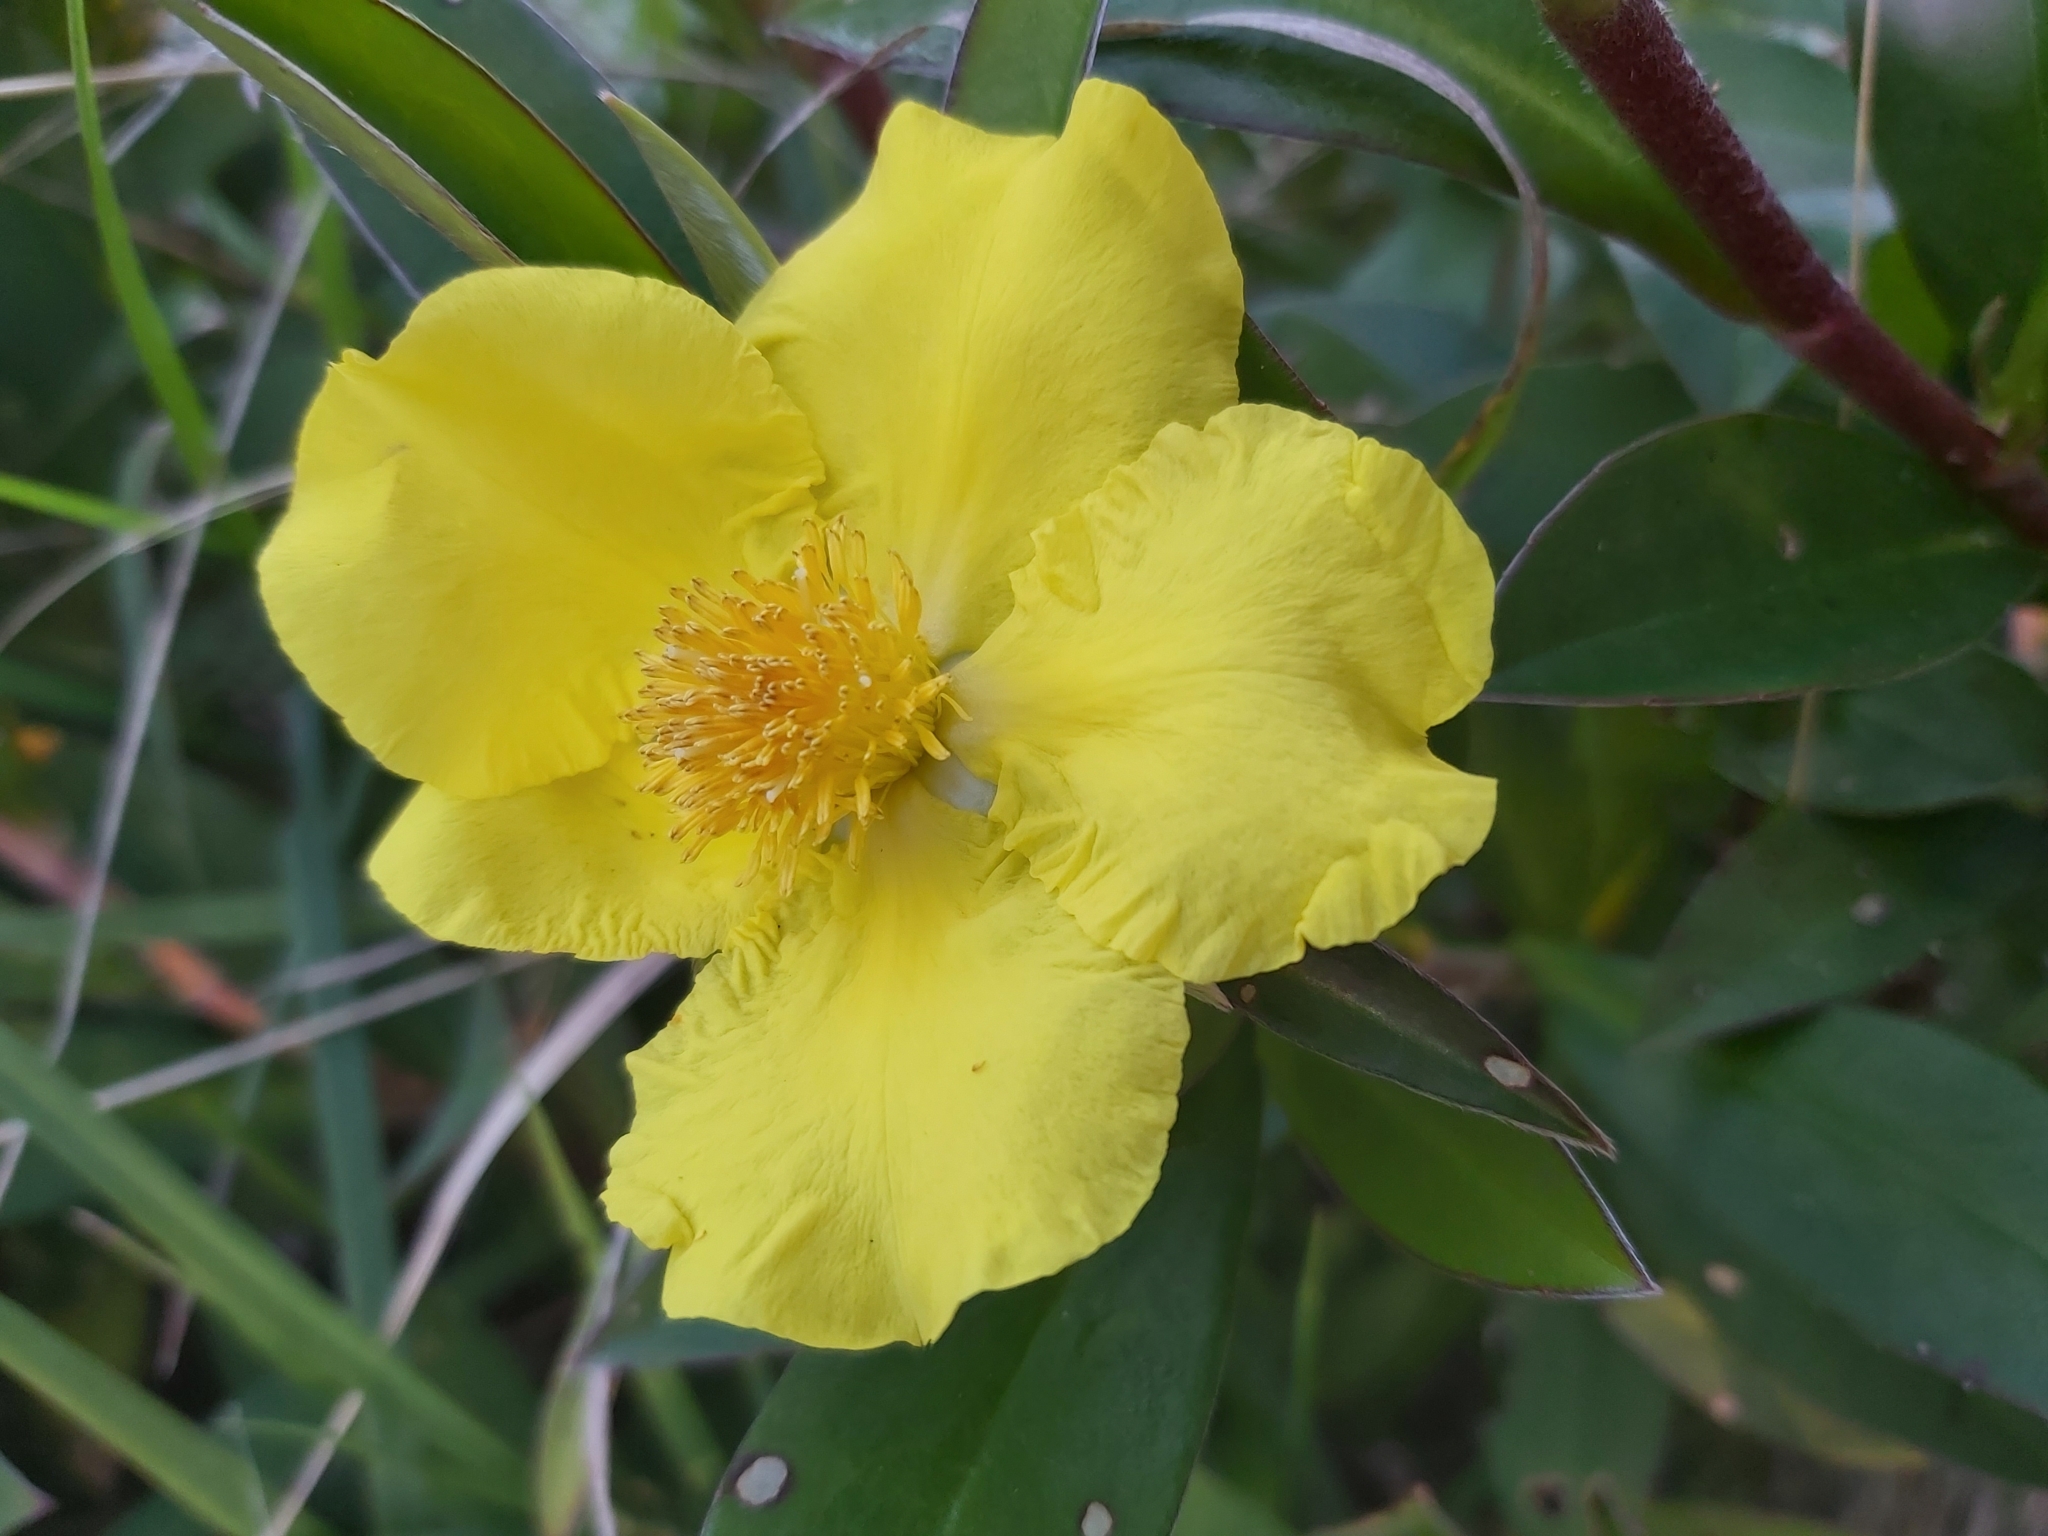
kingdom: Plantae
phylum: Tracheophyta
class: Magnoliopsida
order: Dilleniales
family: Dilleniaceae
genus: Hibbertia
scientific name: Hibbertia scandens
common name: Climbing guinea-flower
